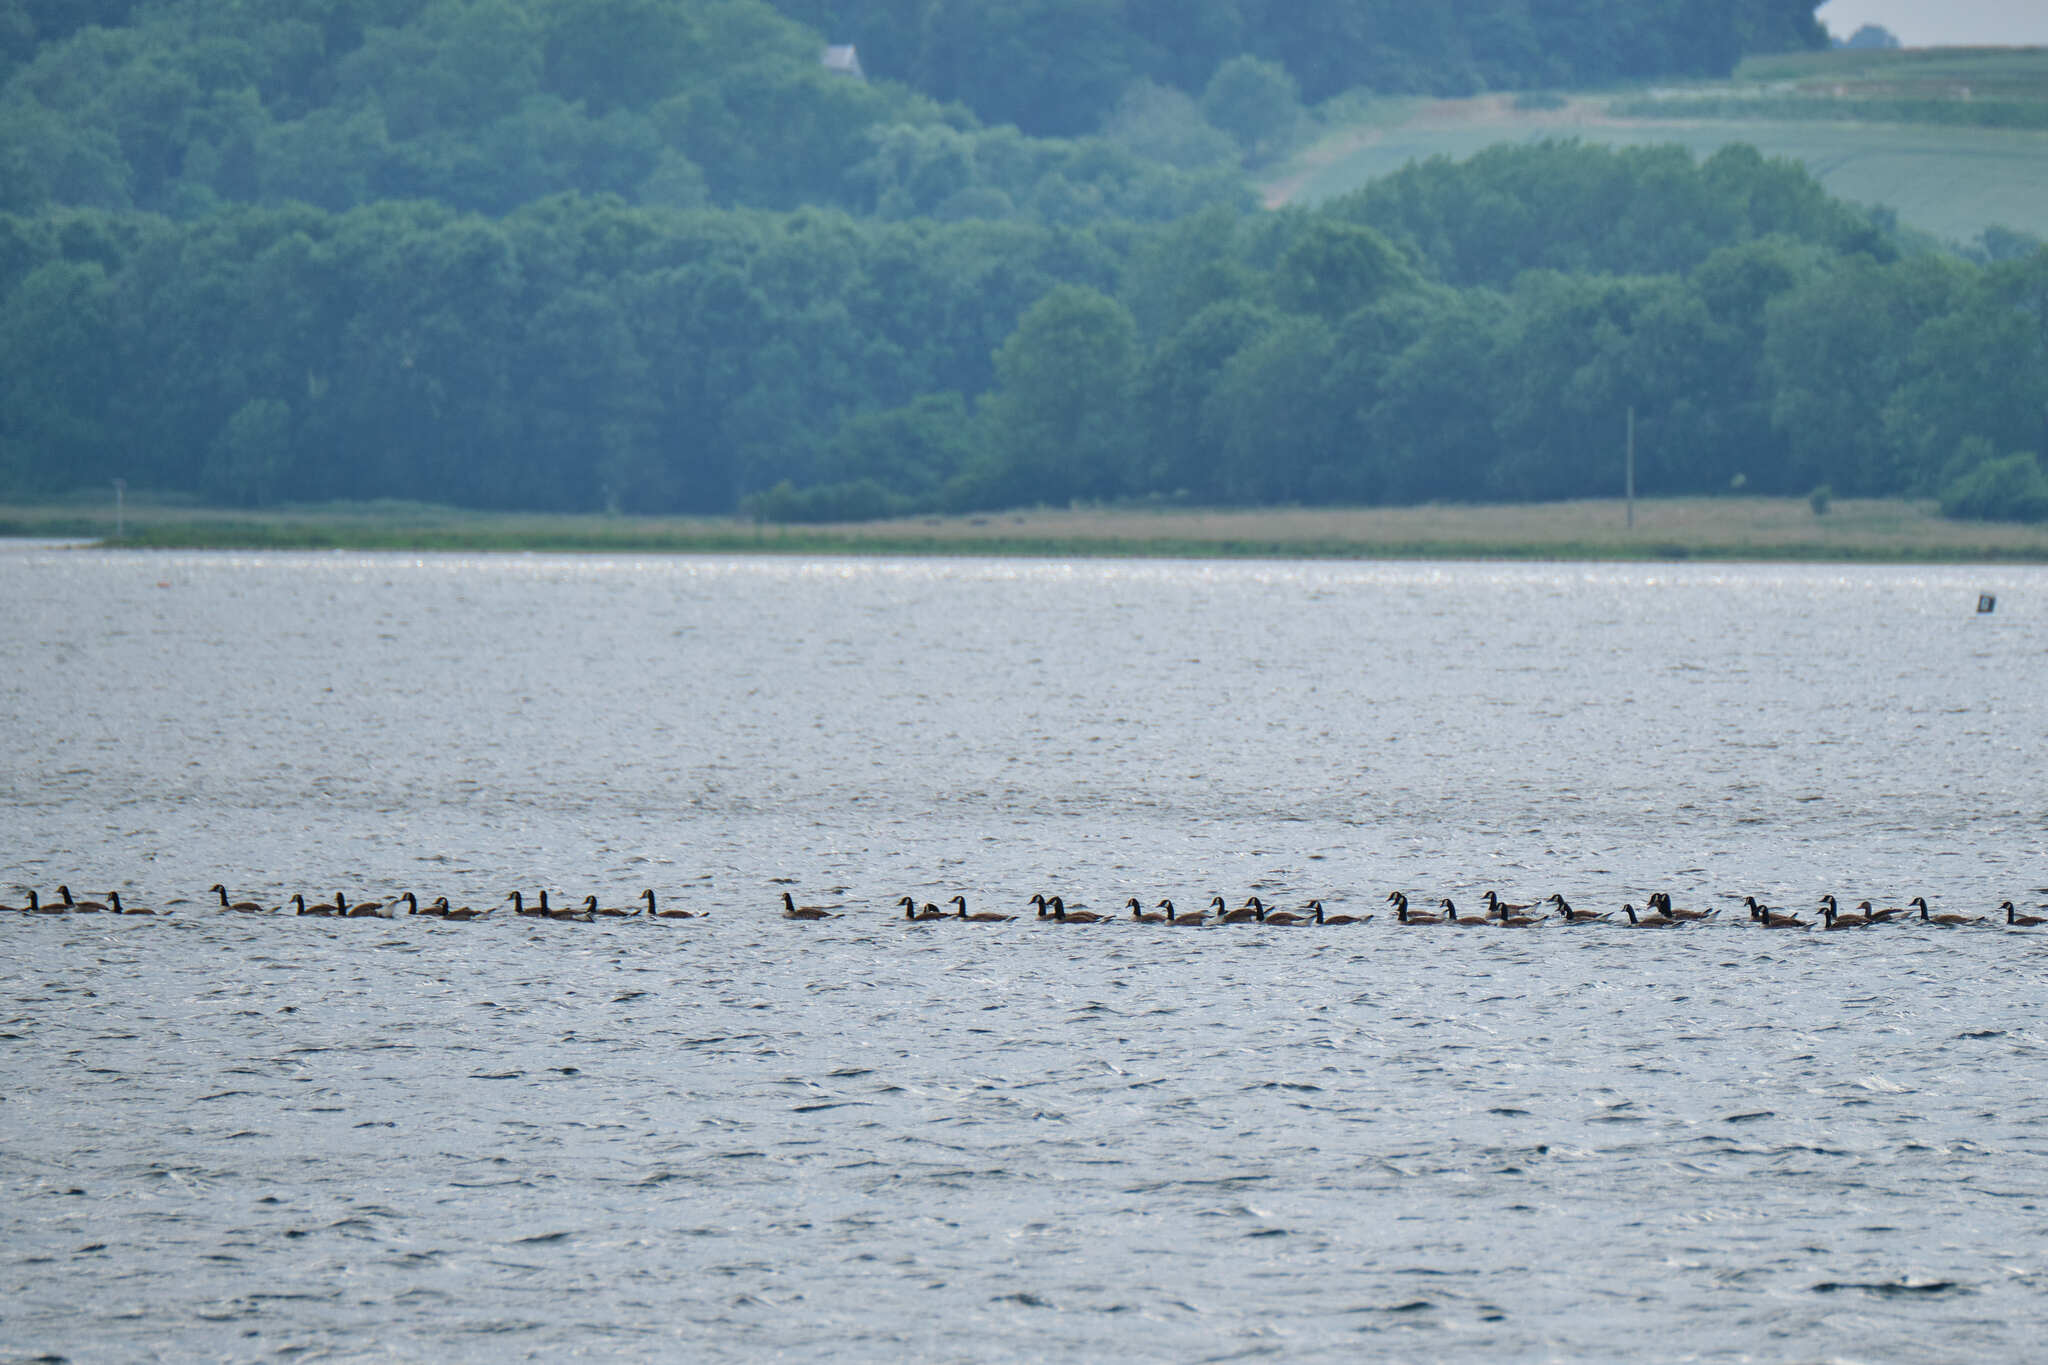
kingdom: Animalia
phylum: Chordata
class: Aves
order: Anseriformes
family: Anatidae
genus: Branta
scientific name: Branta canadensis
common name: Canada goose
